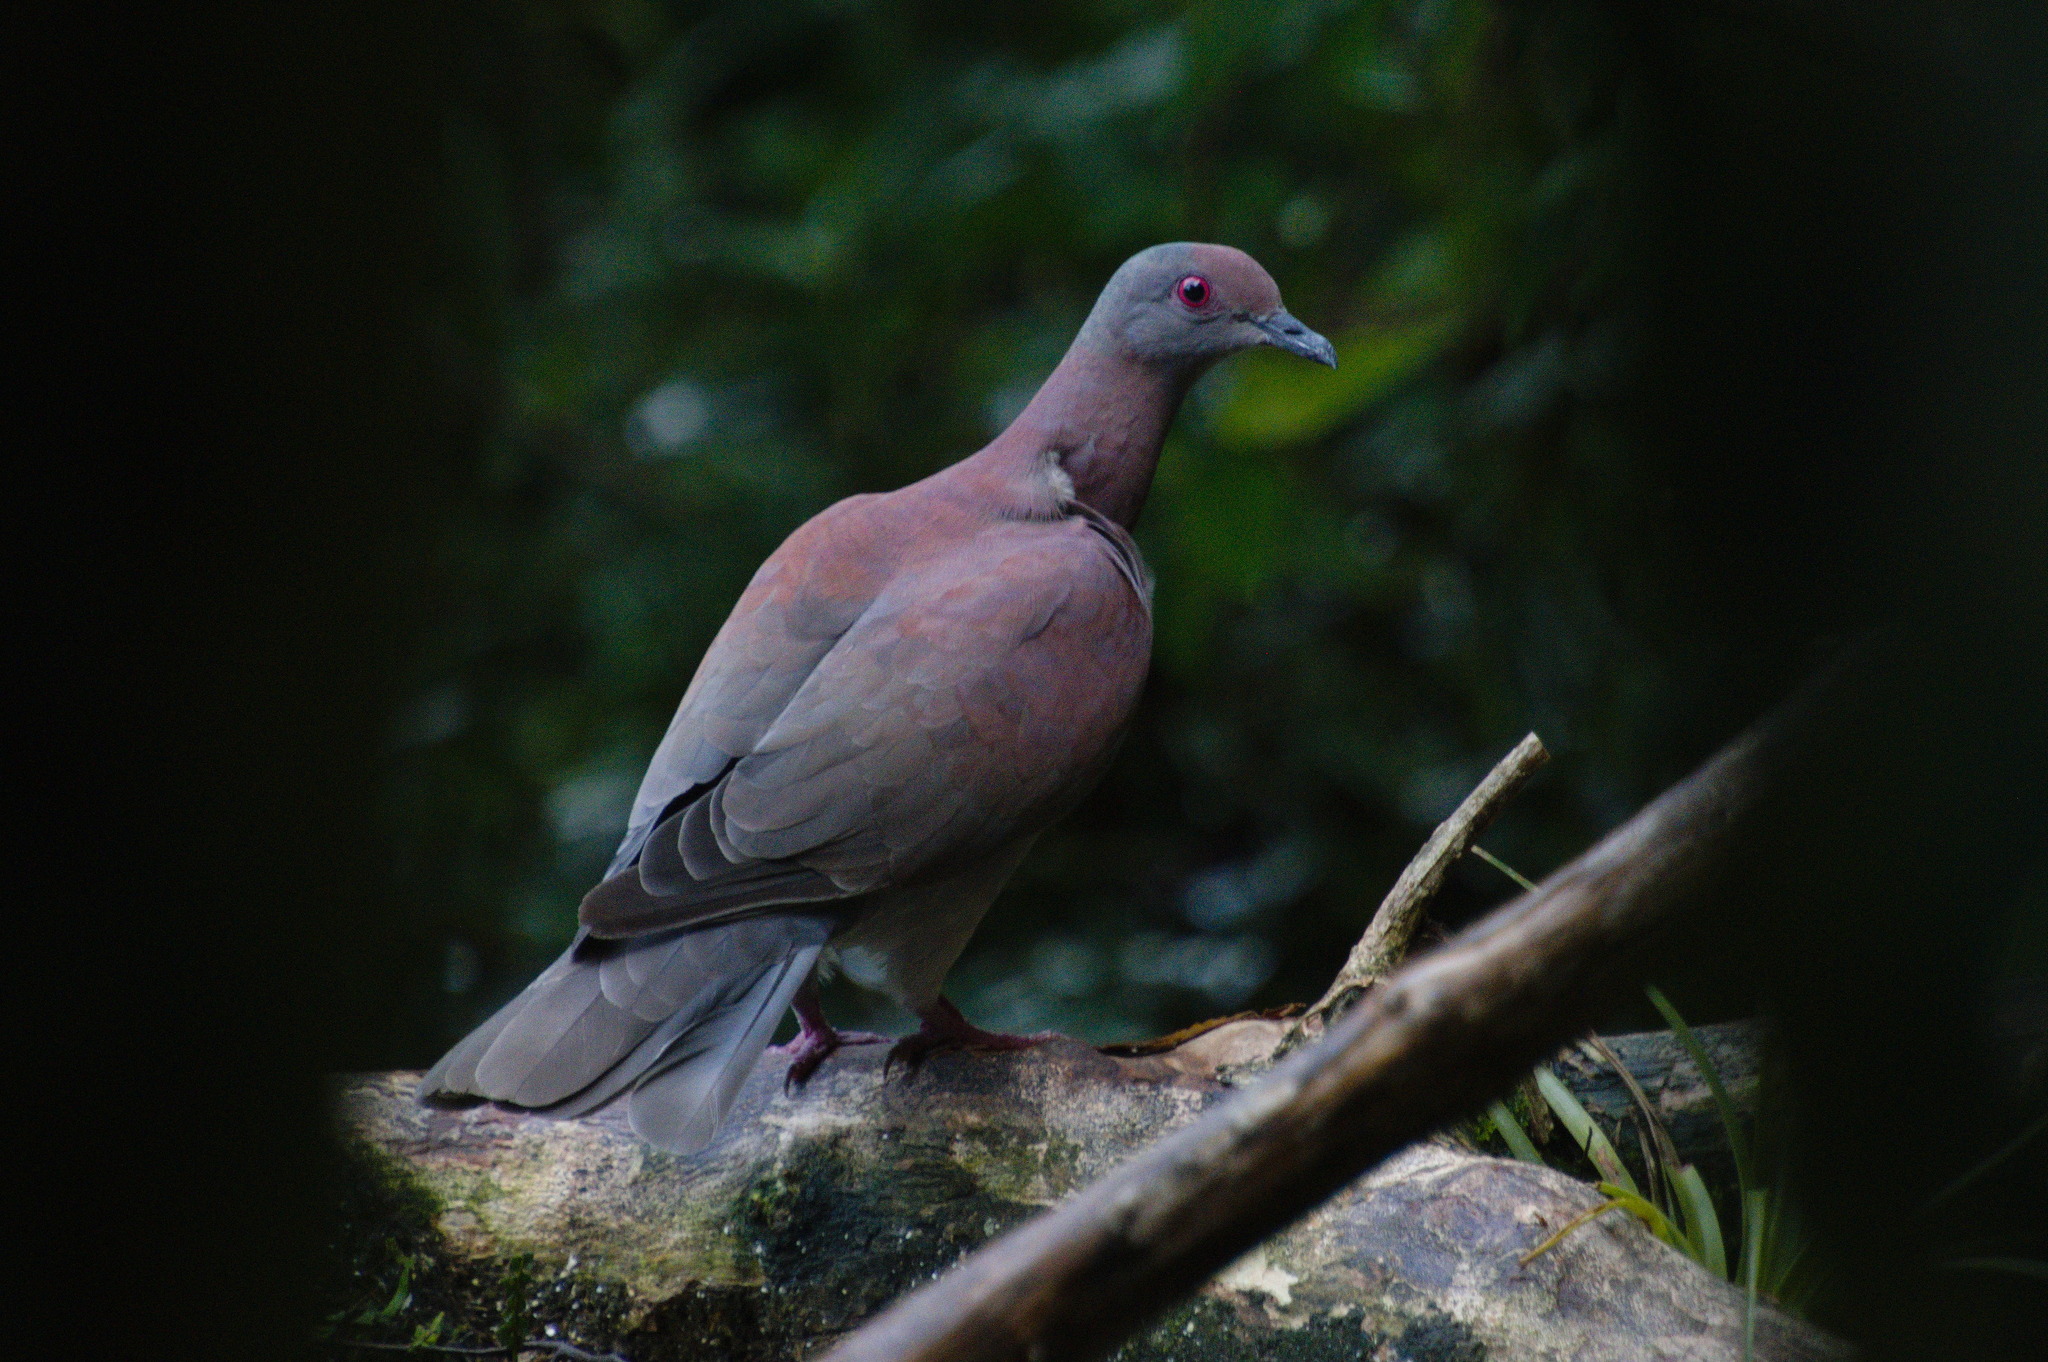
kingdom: Animalia
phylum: Chordata
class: Aves
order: Columbiformes
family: Columbidae
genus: Patagioenas
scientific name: Patagioenas cayennensis
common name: Pale-vented pigeon
